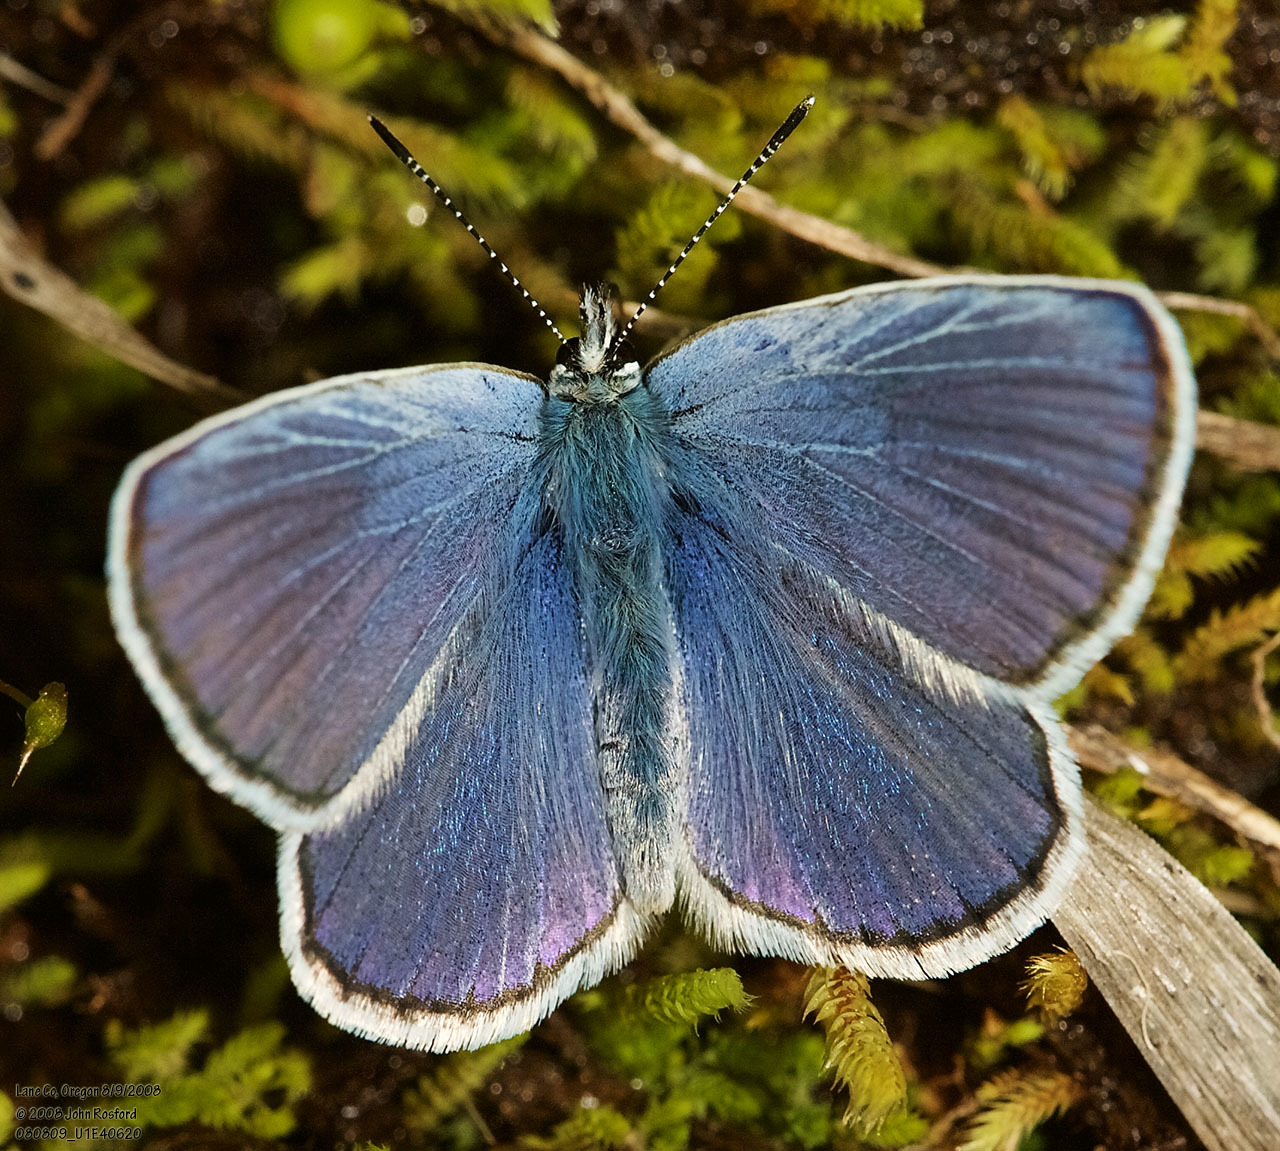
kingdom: Animalia
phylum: Arthropoda
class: Insecta
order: Lepidoptera
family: Lycaenidae
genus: Lycaeides
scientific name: Lycaeides anna
